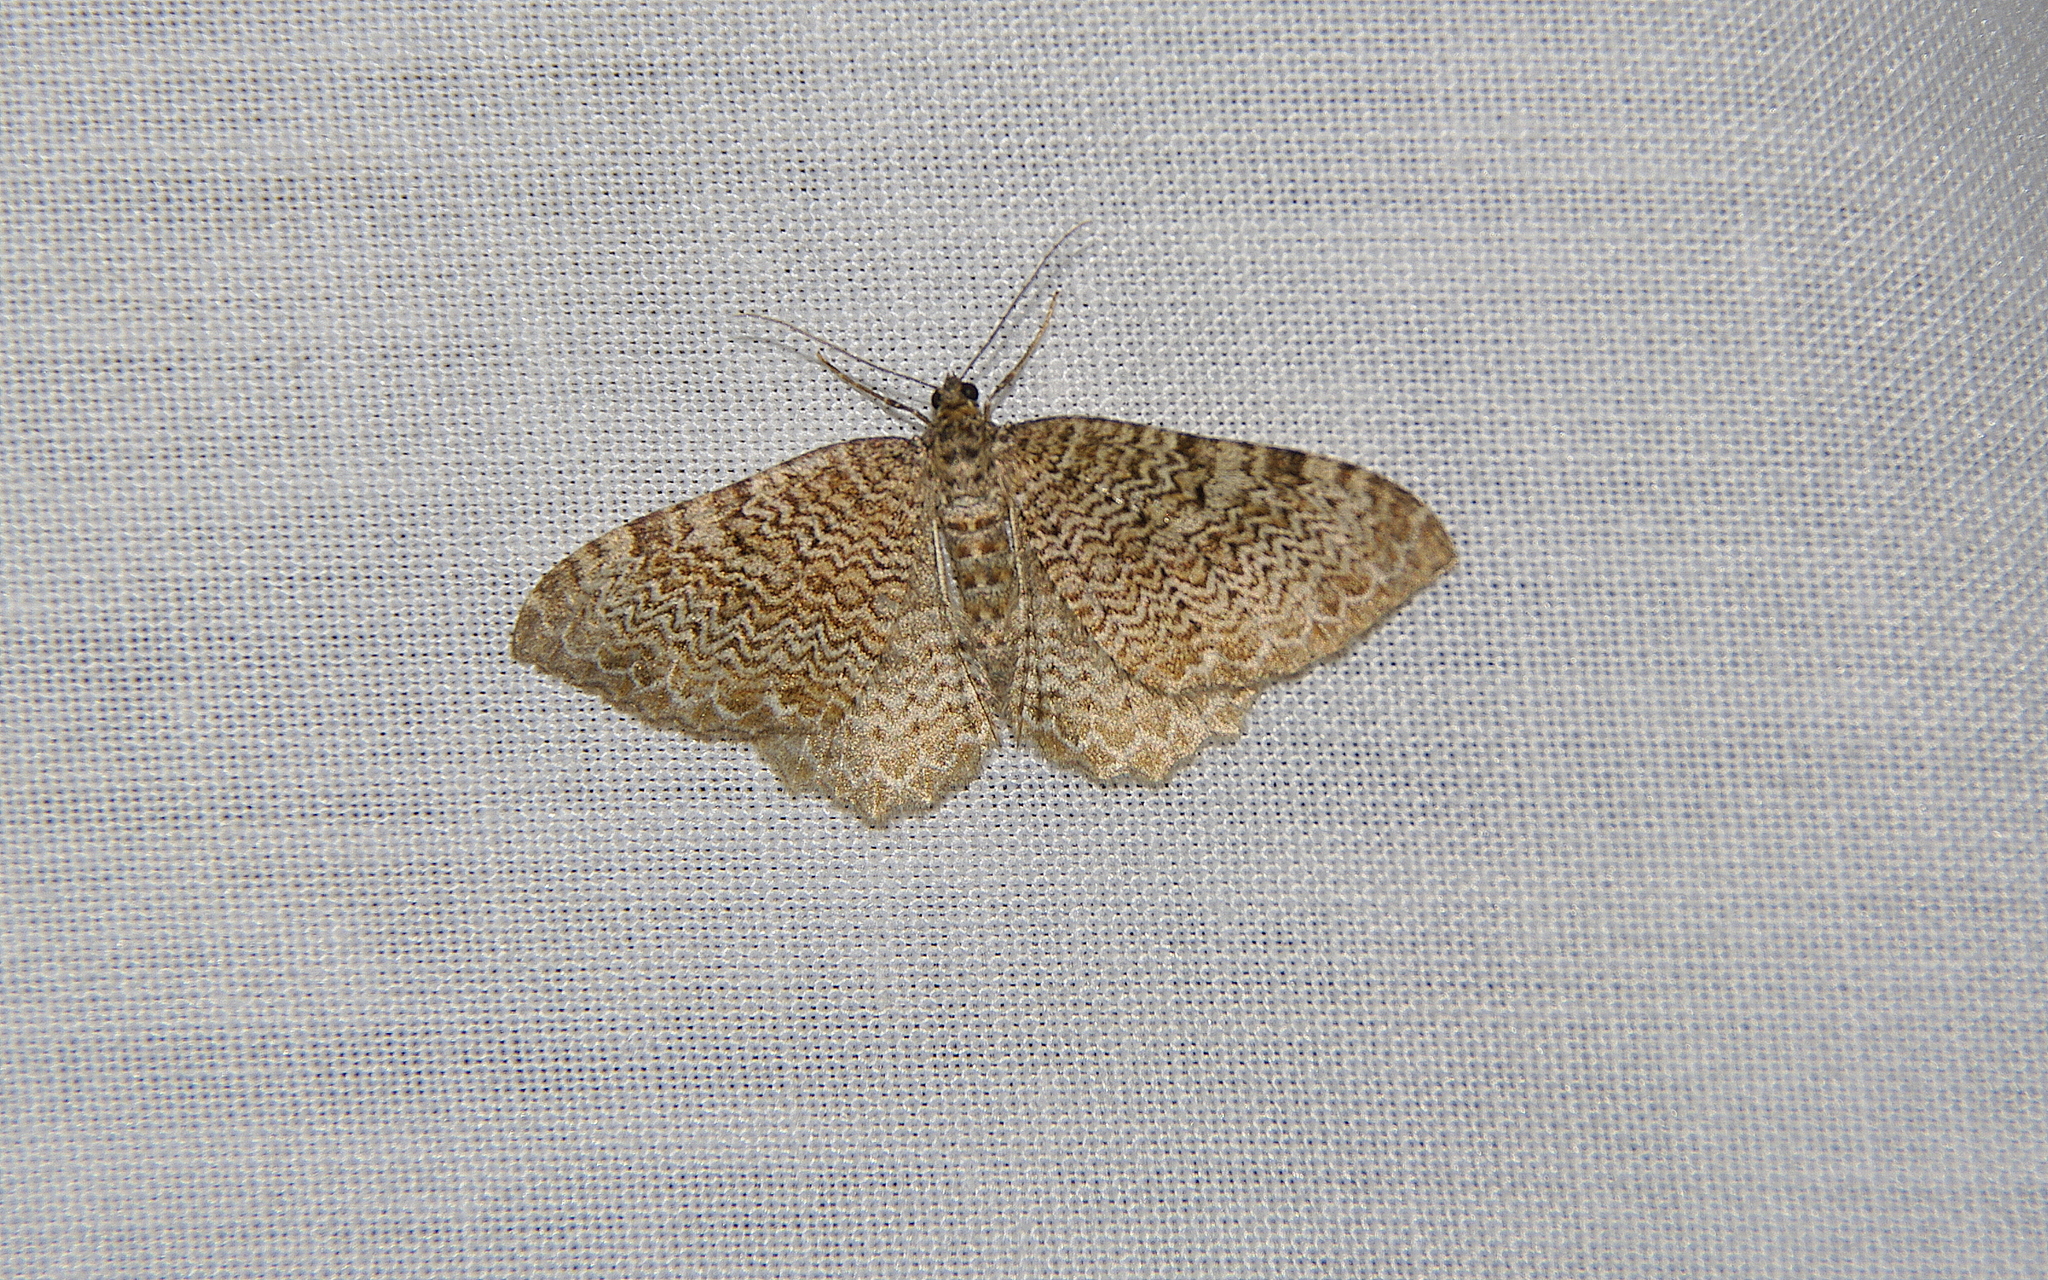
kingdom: Animalia
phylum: Arthropoda
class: Insecta
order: Lepidoptera
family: Geometridae
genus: Rheumaptera
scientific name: Rheumaptera undulata
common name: Scallop shell
